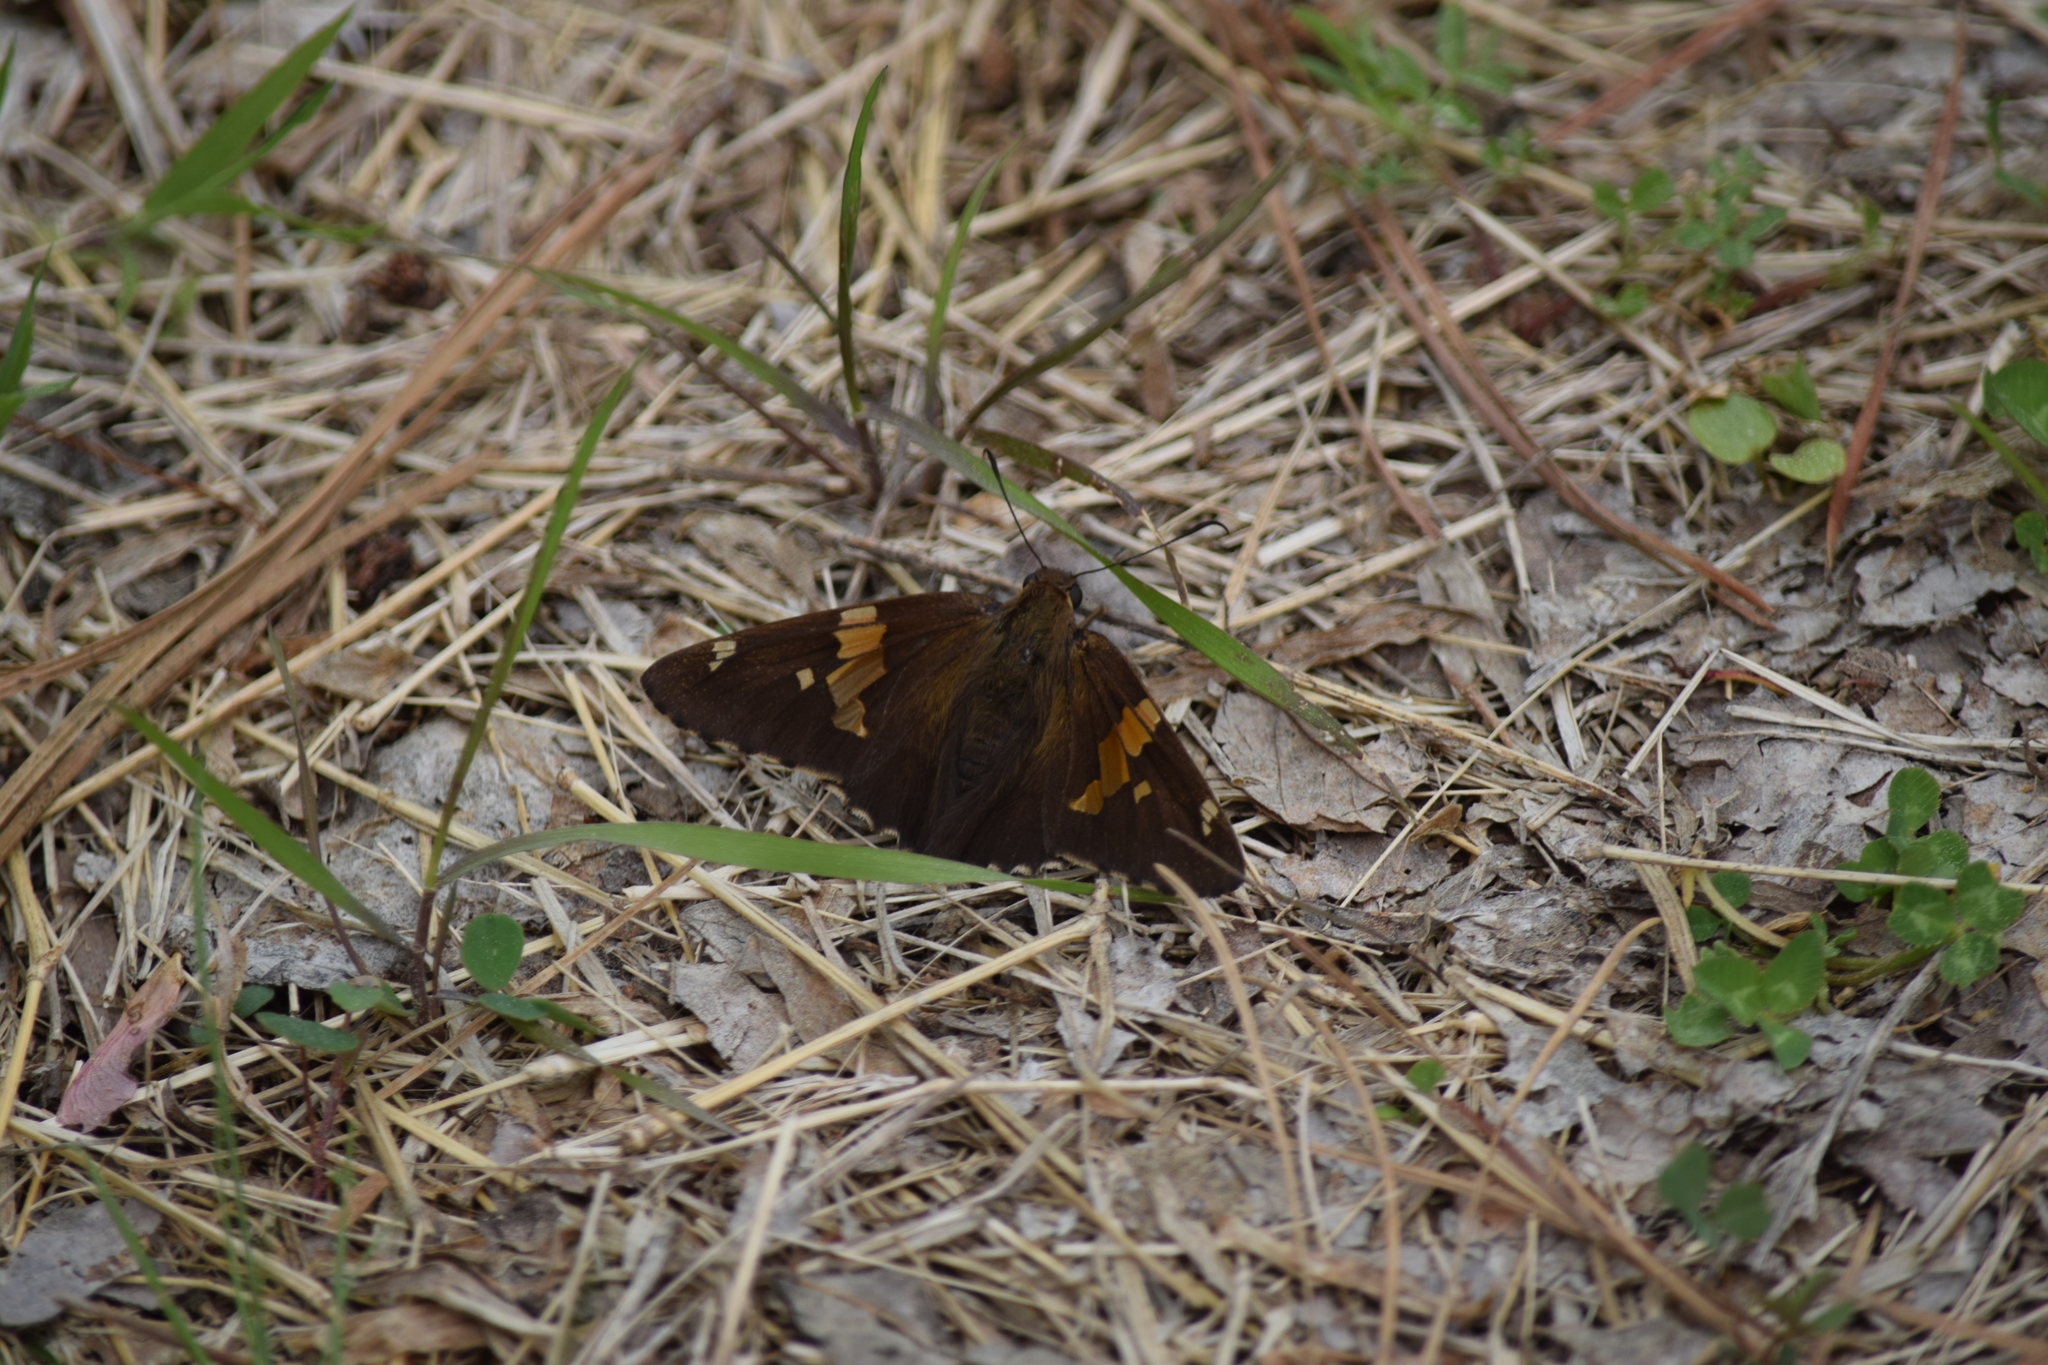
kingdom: Animalia
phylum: Arthropoda
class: Insecta
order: Lepidoptera
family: Hesperiidae
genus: Epargyreus
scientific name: Epargyreus clarus
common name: Silver-spotted skipper
